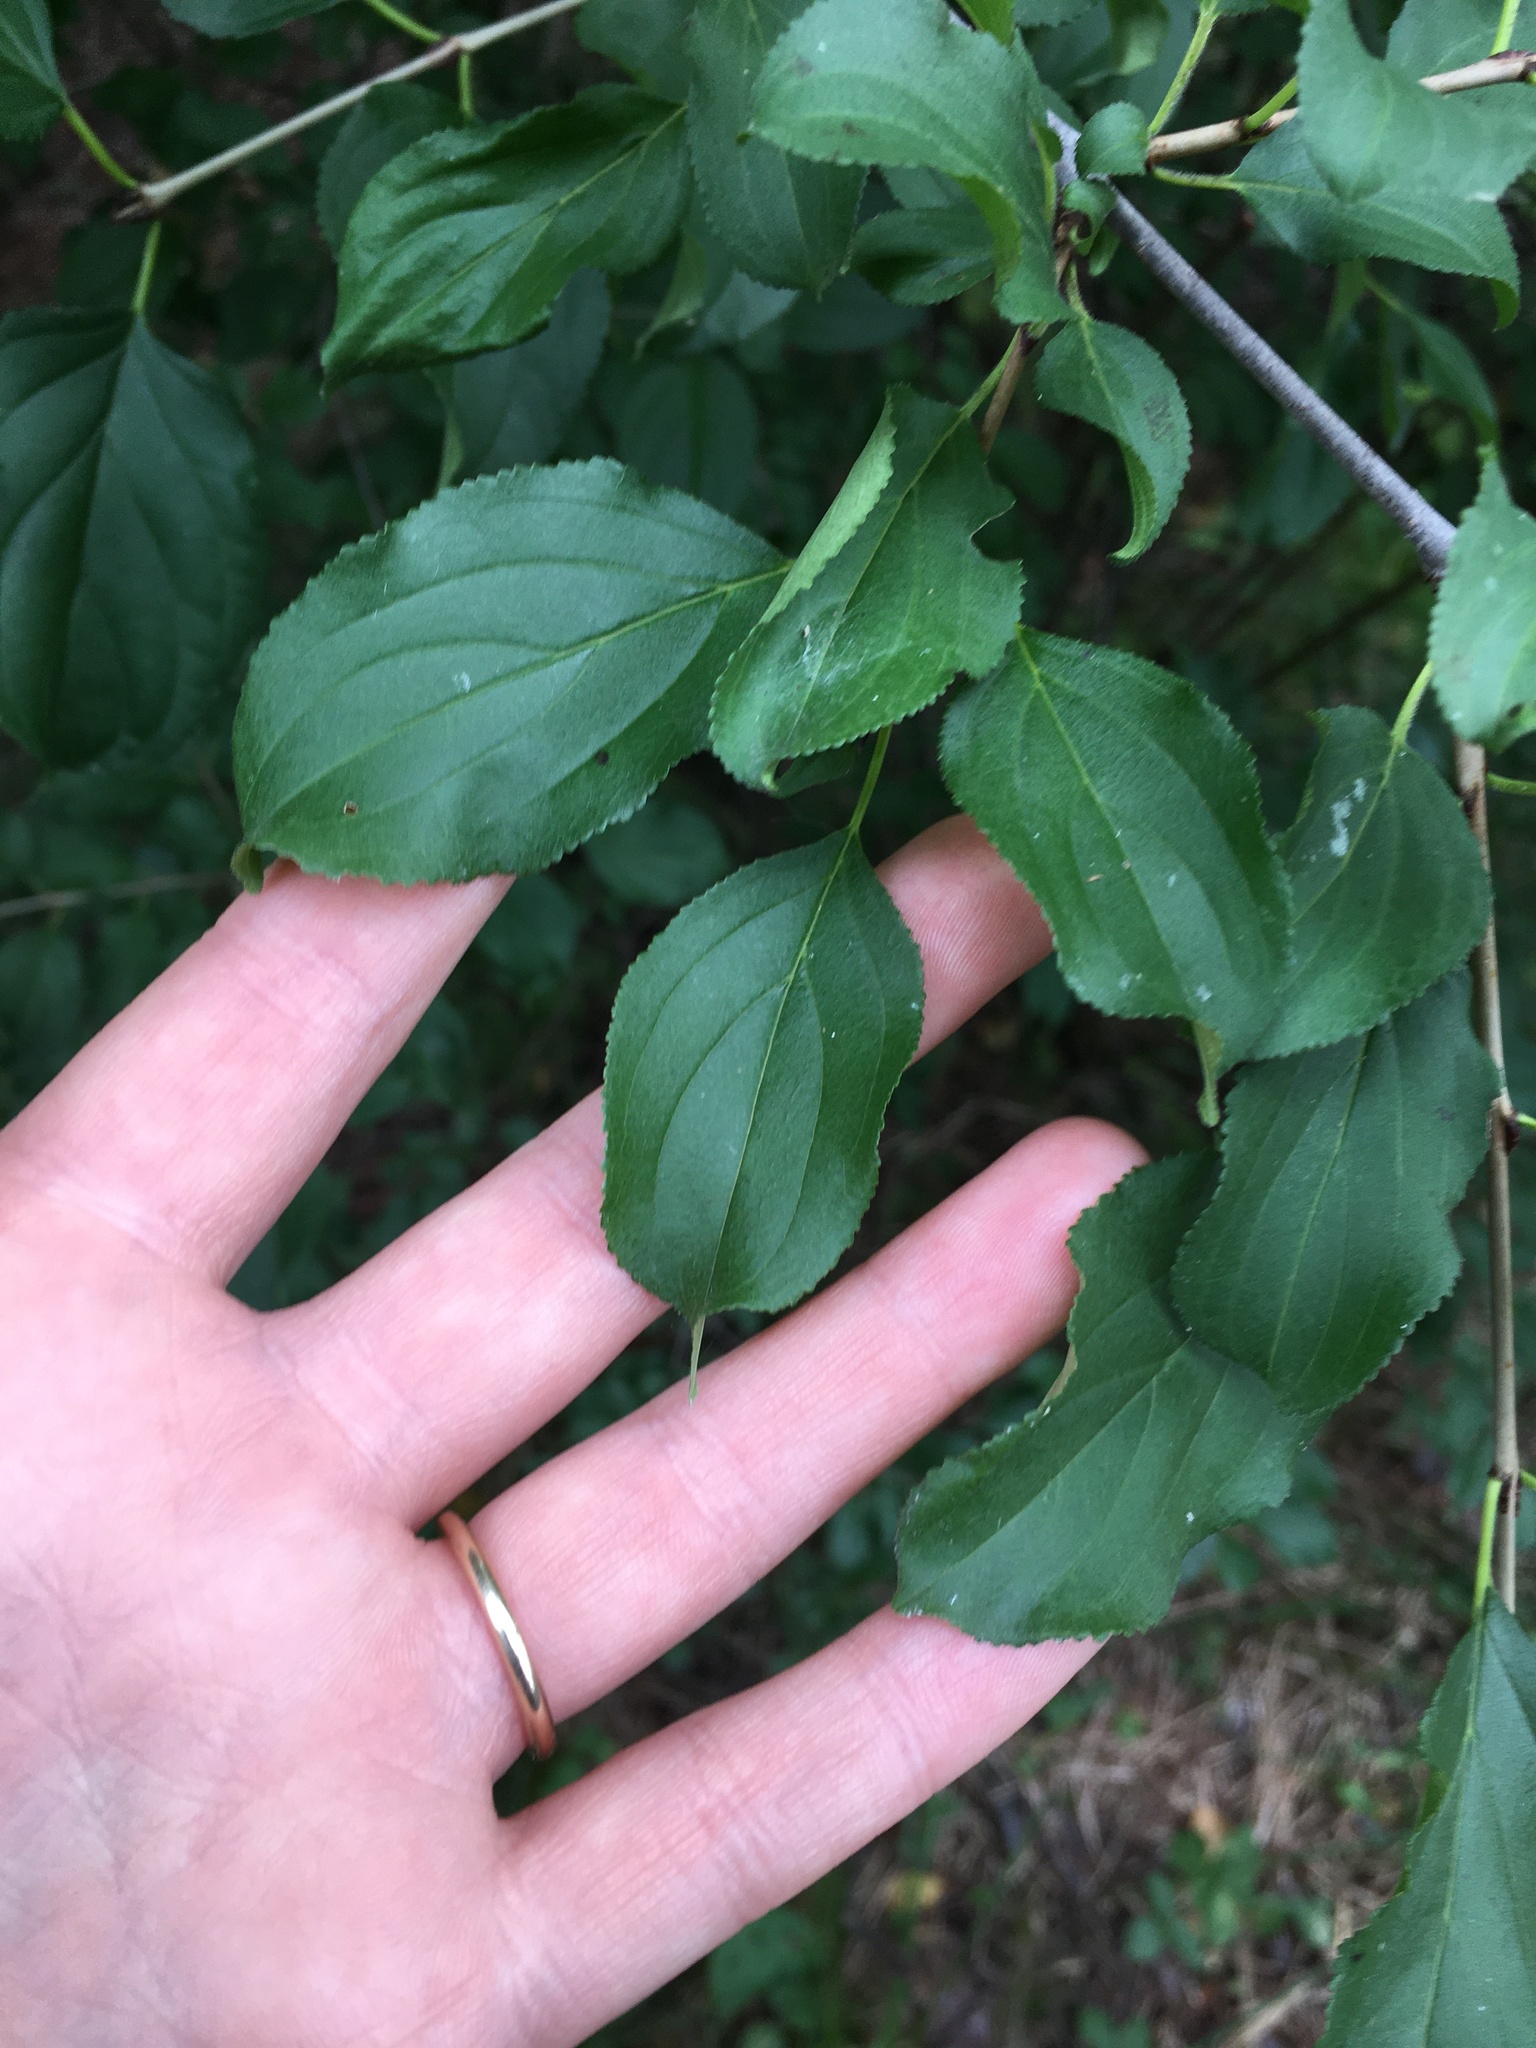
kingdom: Plantae
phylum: Tracheophyta
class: Magnoliopsida
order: Rosales
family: Rhamnaceae
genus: Rhamnus
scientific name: Rhamnus cathartica
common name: Common buckthorn
